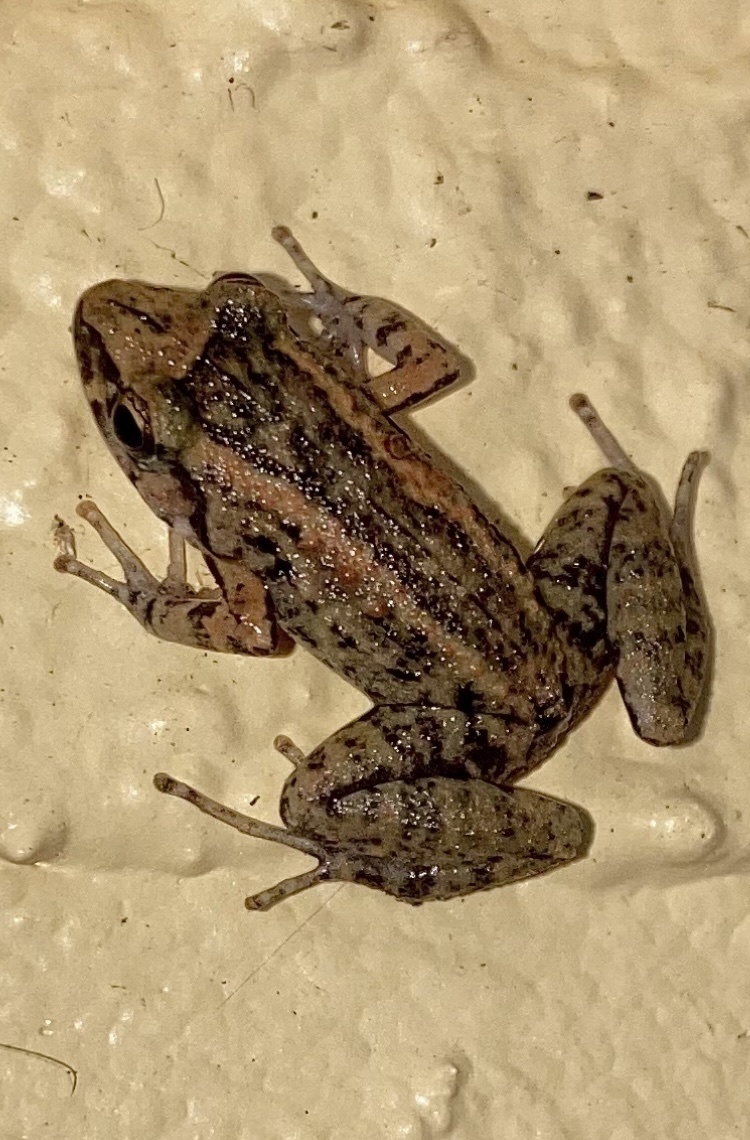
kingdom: Animalia
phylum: Chordata
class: Amphibia
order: Anura
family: Eleutherodactylidae
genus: Eleutherodactylus
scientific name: Eleutherodactylus planirostris
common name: Greenhouse frog
